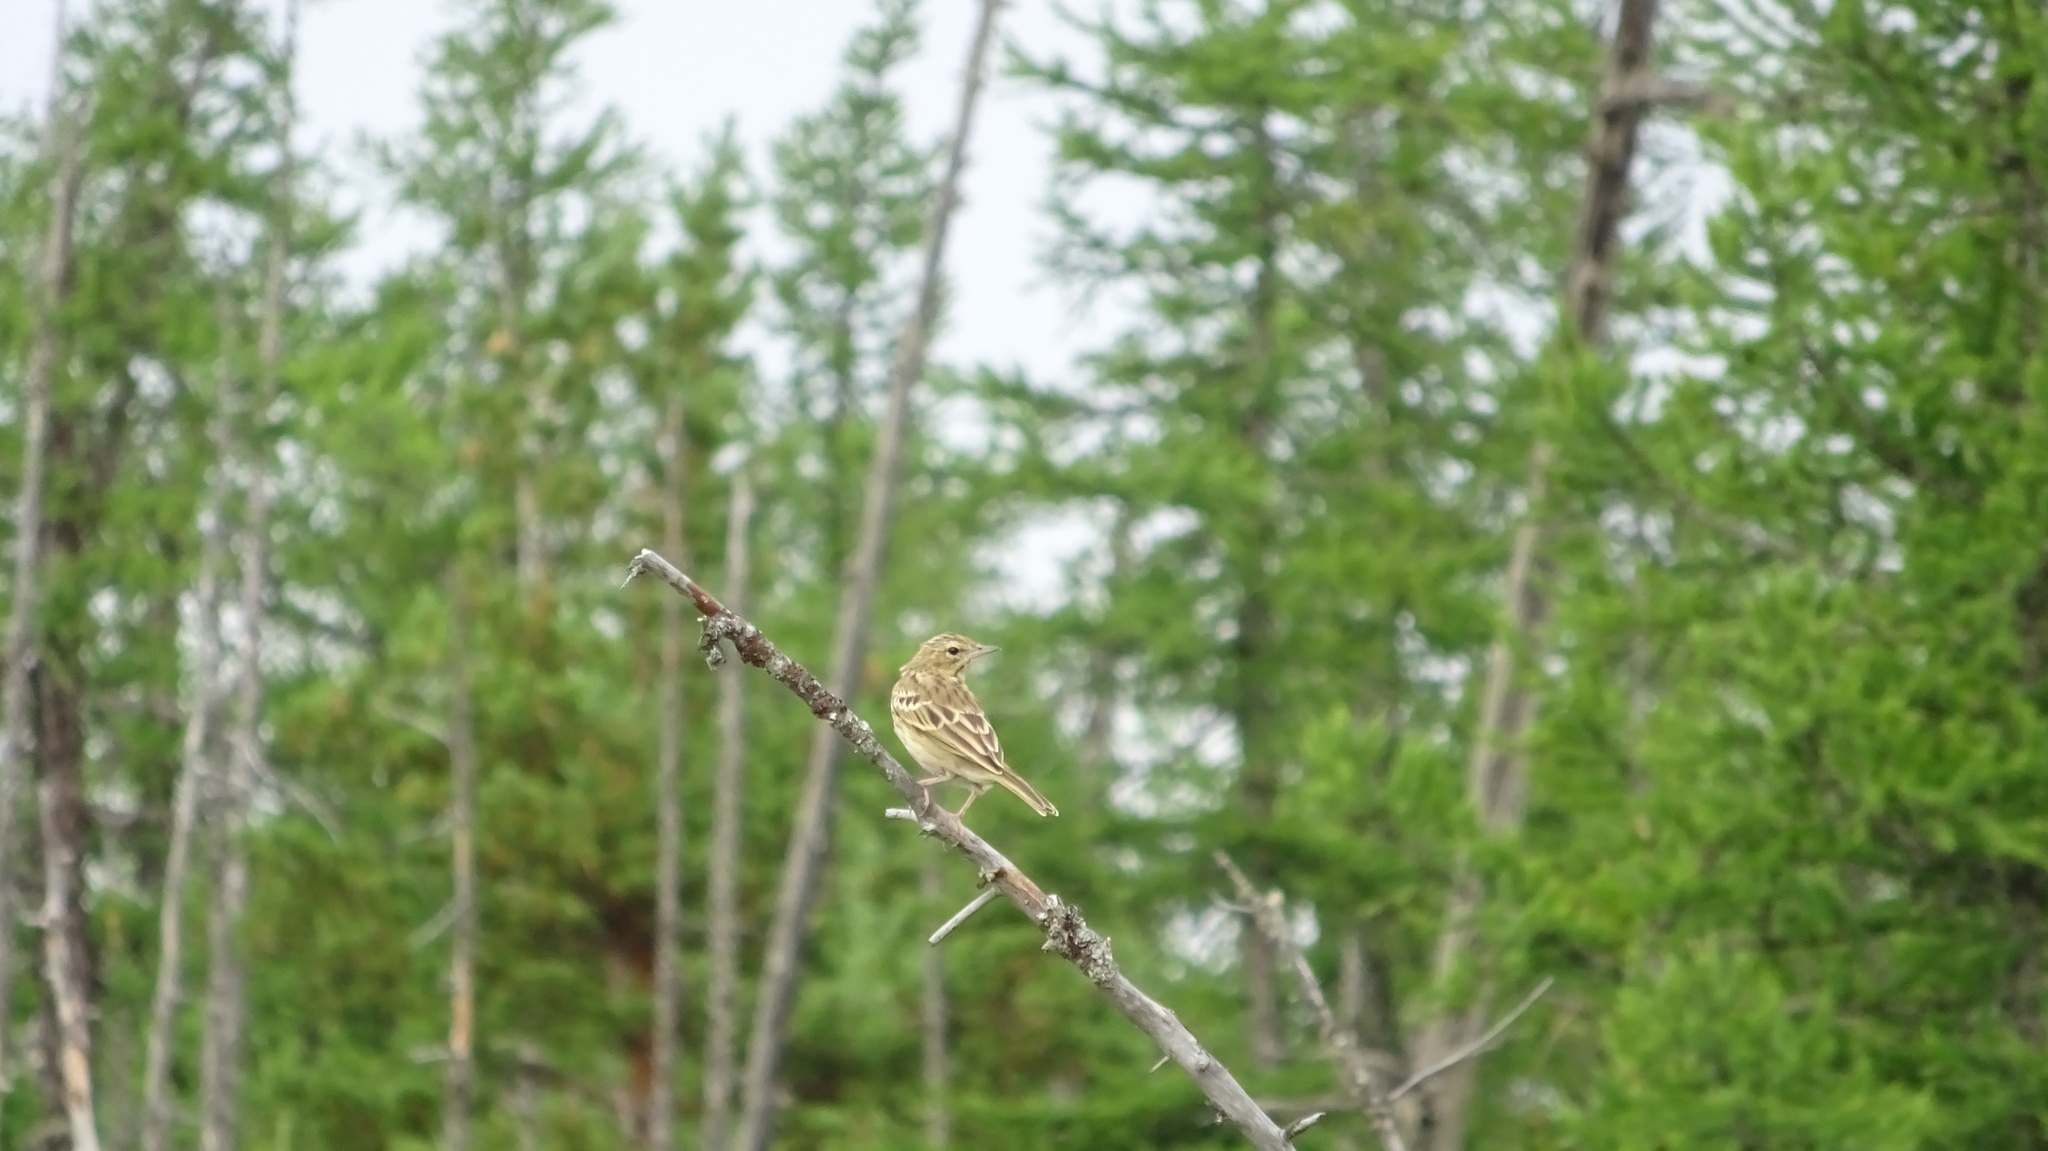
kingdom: Animalia
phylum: Chordata
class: Aves
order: Passeriformes
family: Motacillidae
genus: Anthus
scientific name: Anthus trivialis
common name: Tree pipit
